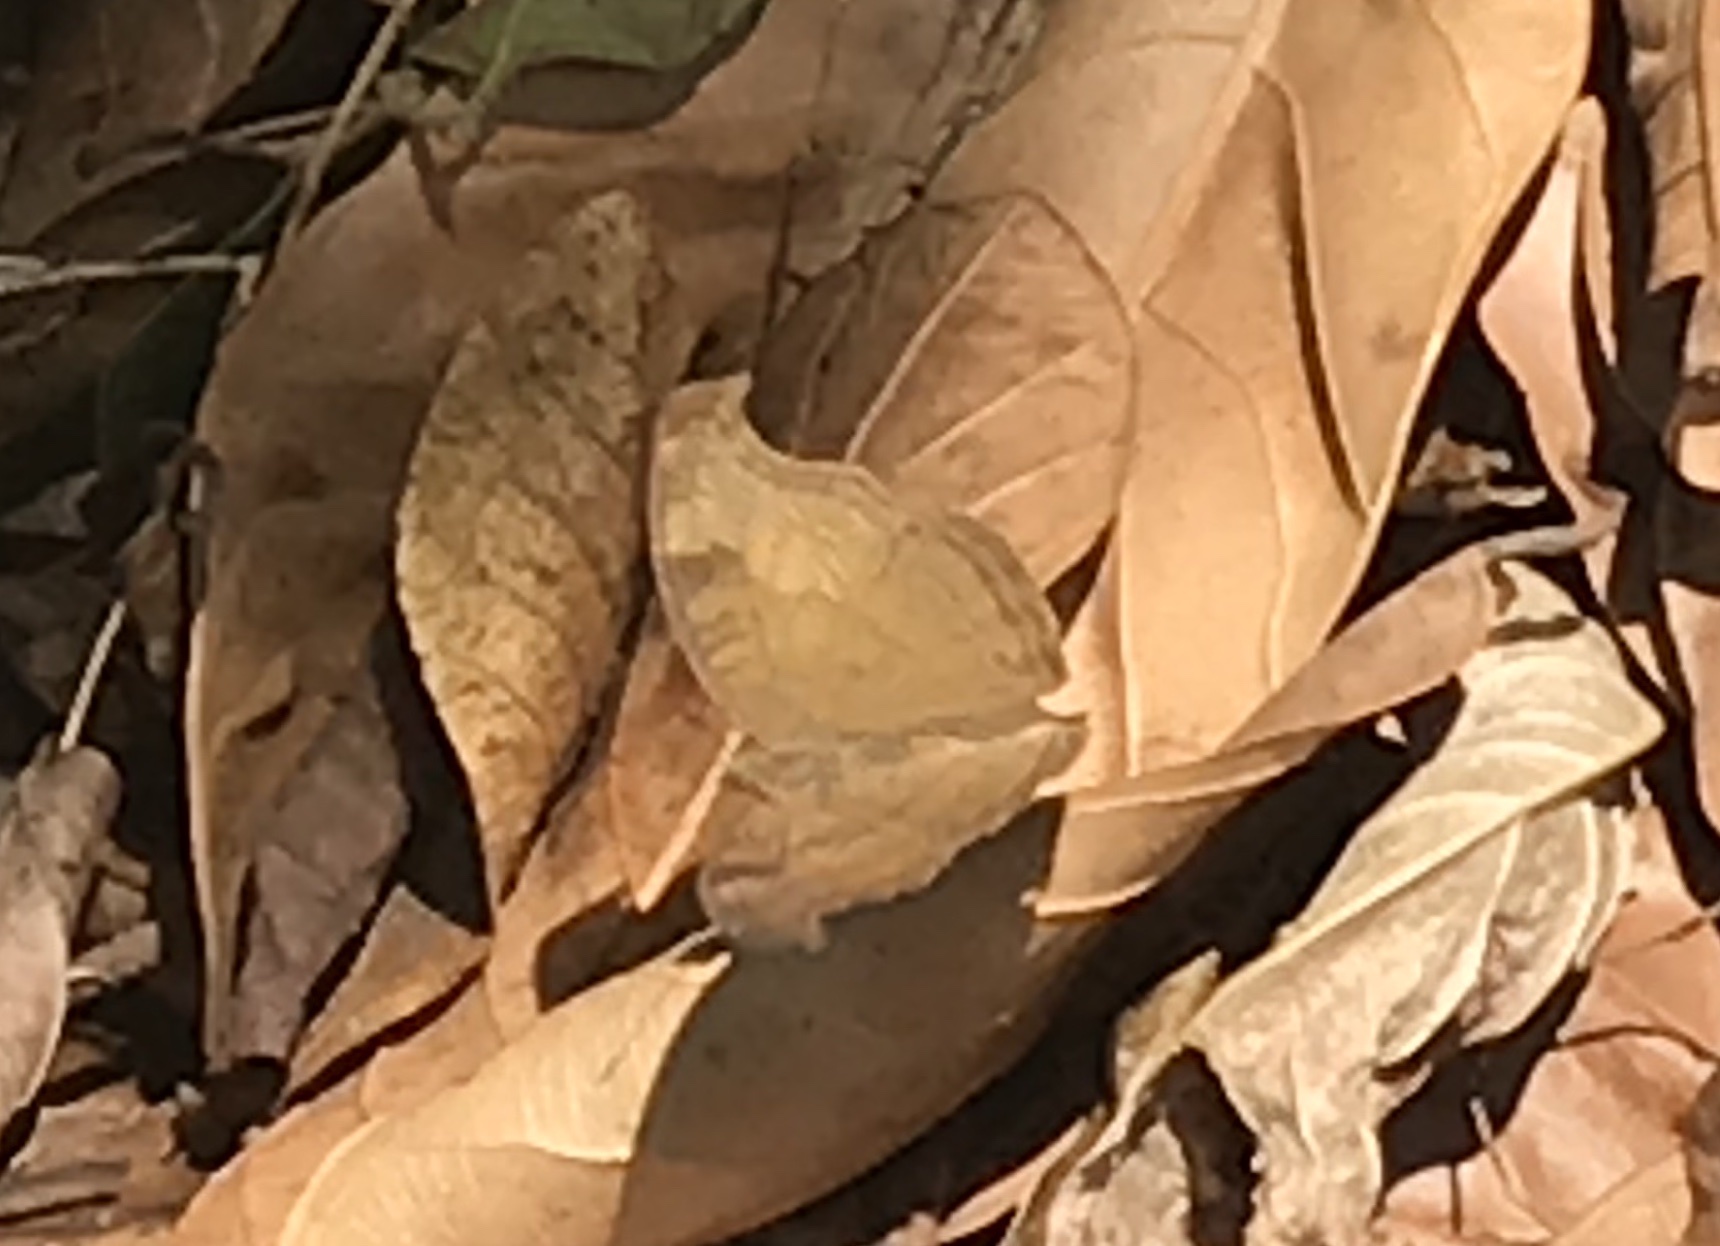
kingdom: Animalia
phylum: Arthropoda
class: Insecta
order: Lepidoptera
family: Nymphalidae
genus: Junonia
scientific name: Junonia iphita
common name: Chocolate pansy
